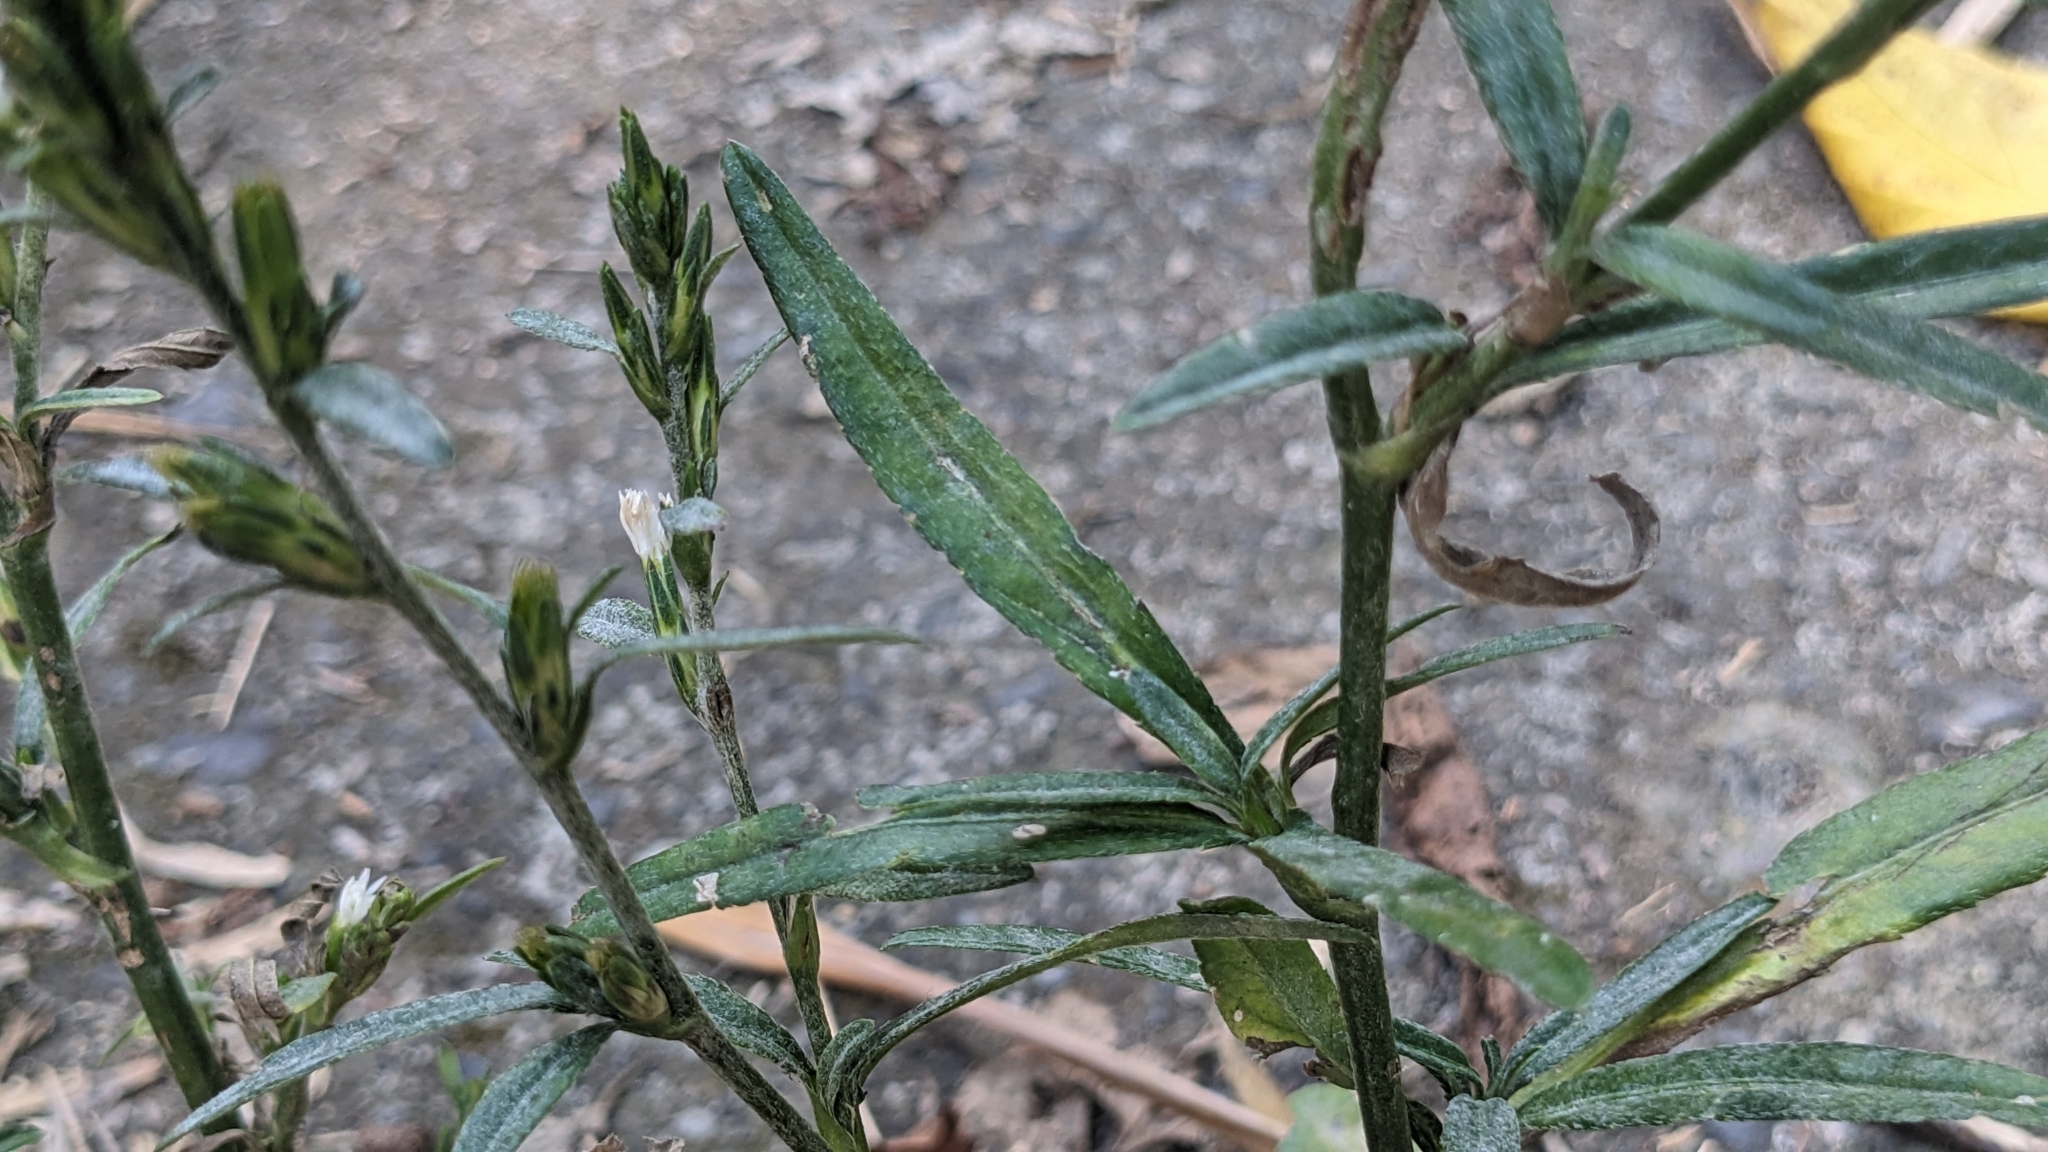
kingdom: Plantae
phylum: Tracheophyta
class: Magnoliopsida
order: Asterales
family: Asteraceae
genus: Pseudelephantopus
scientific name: Pseudelephantopus spicatus
